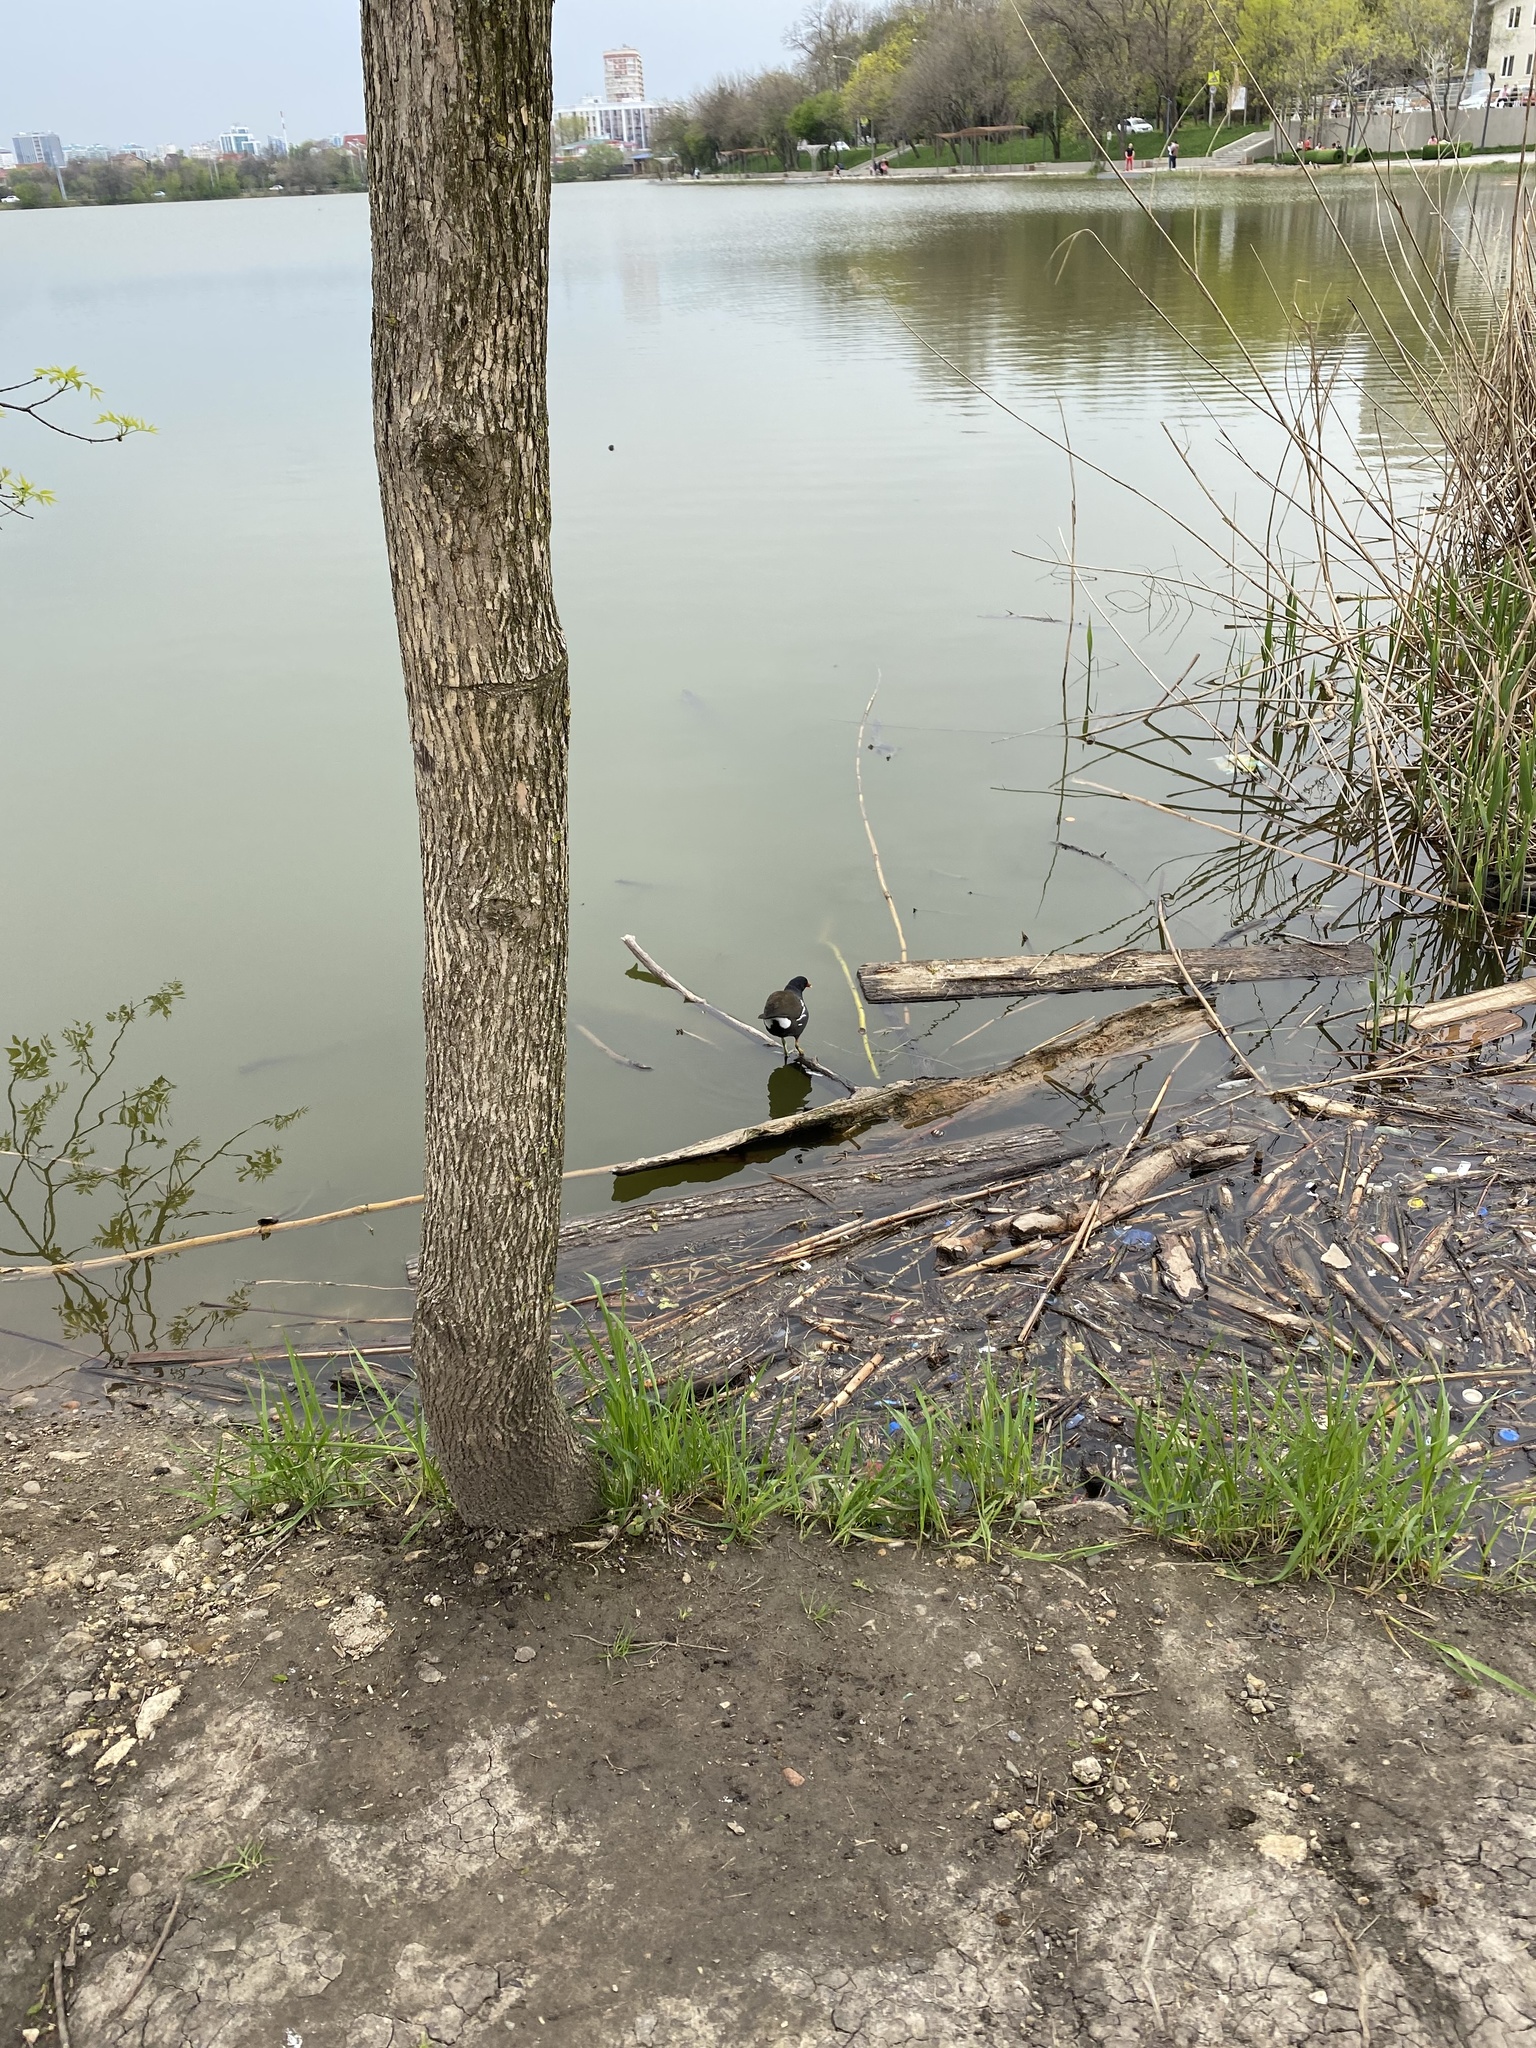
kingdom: Animalia
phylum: Chordata
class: Aves
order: Gruiformes
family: Rallidae
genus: Gallinula
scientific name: Gallinula chloropus
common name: Common moorhen
